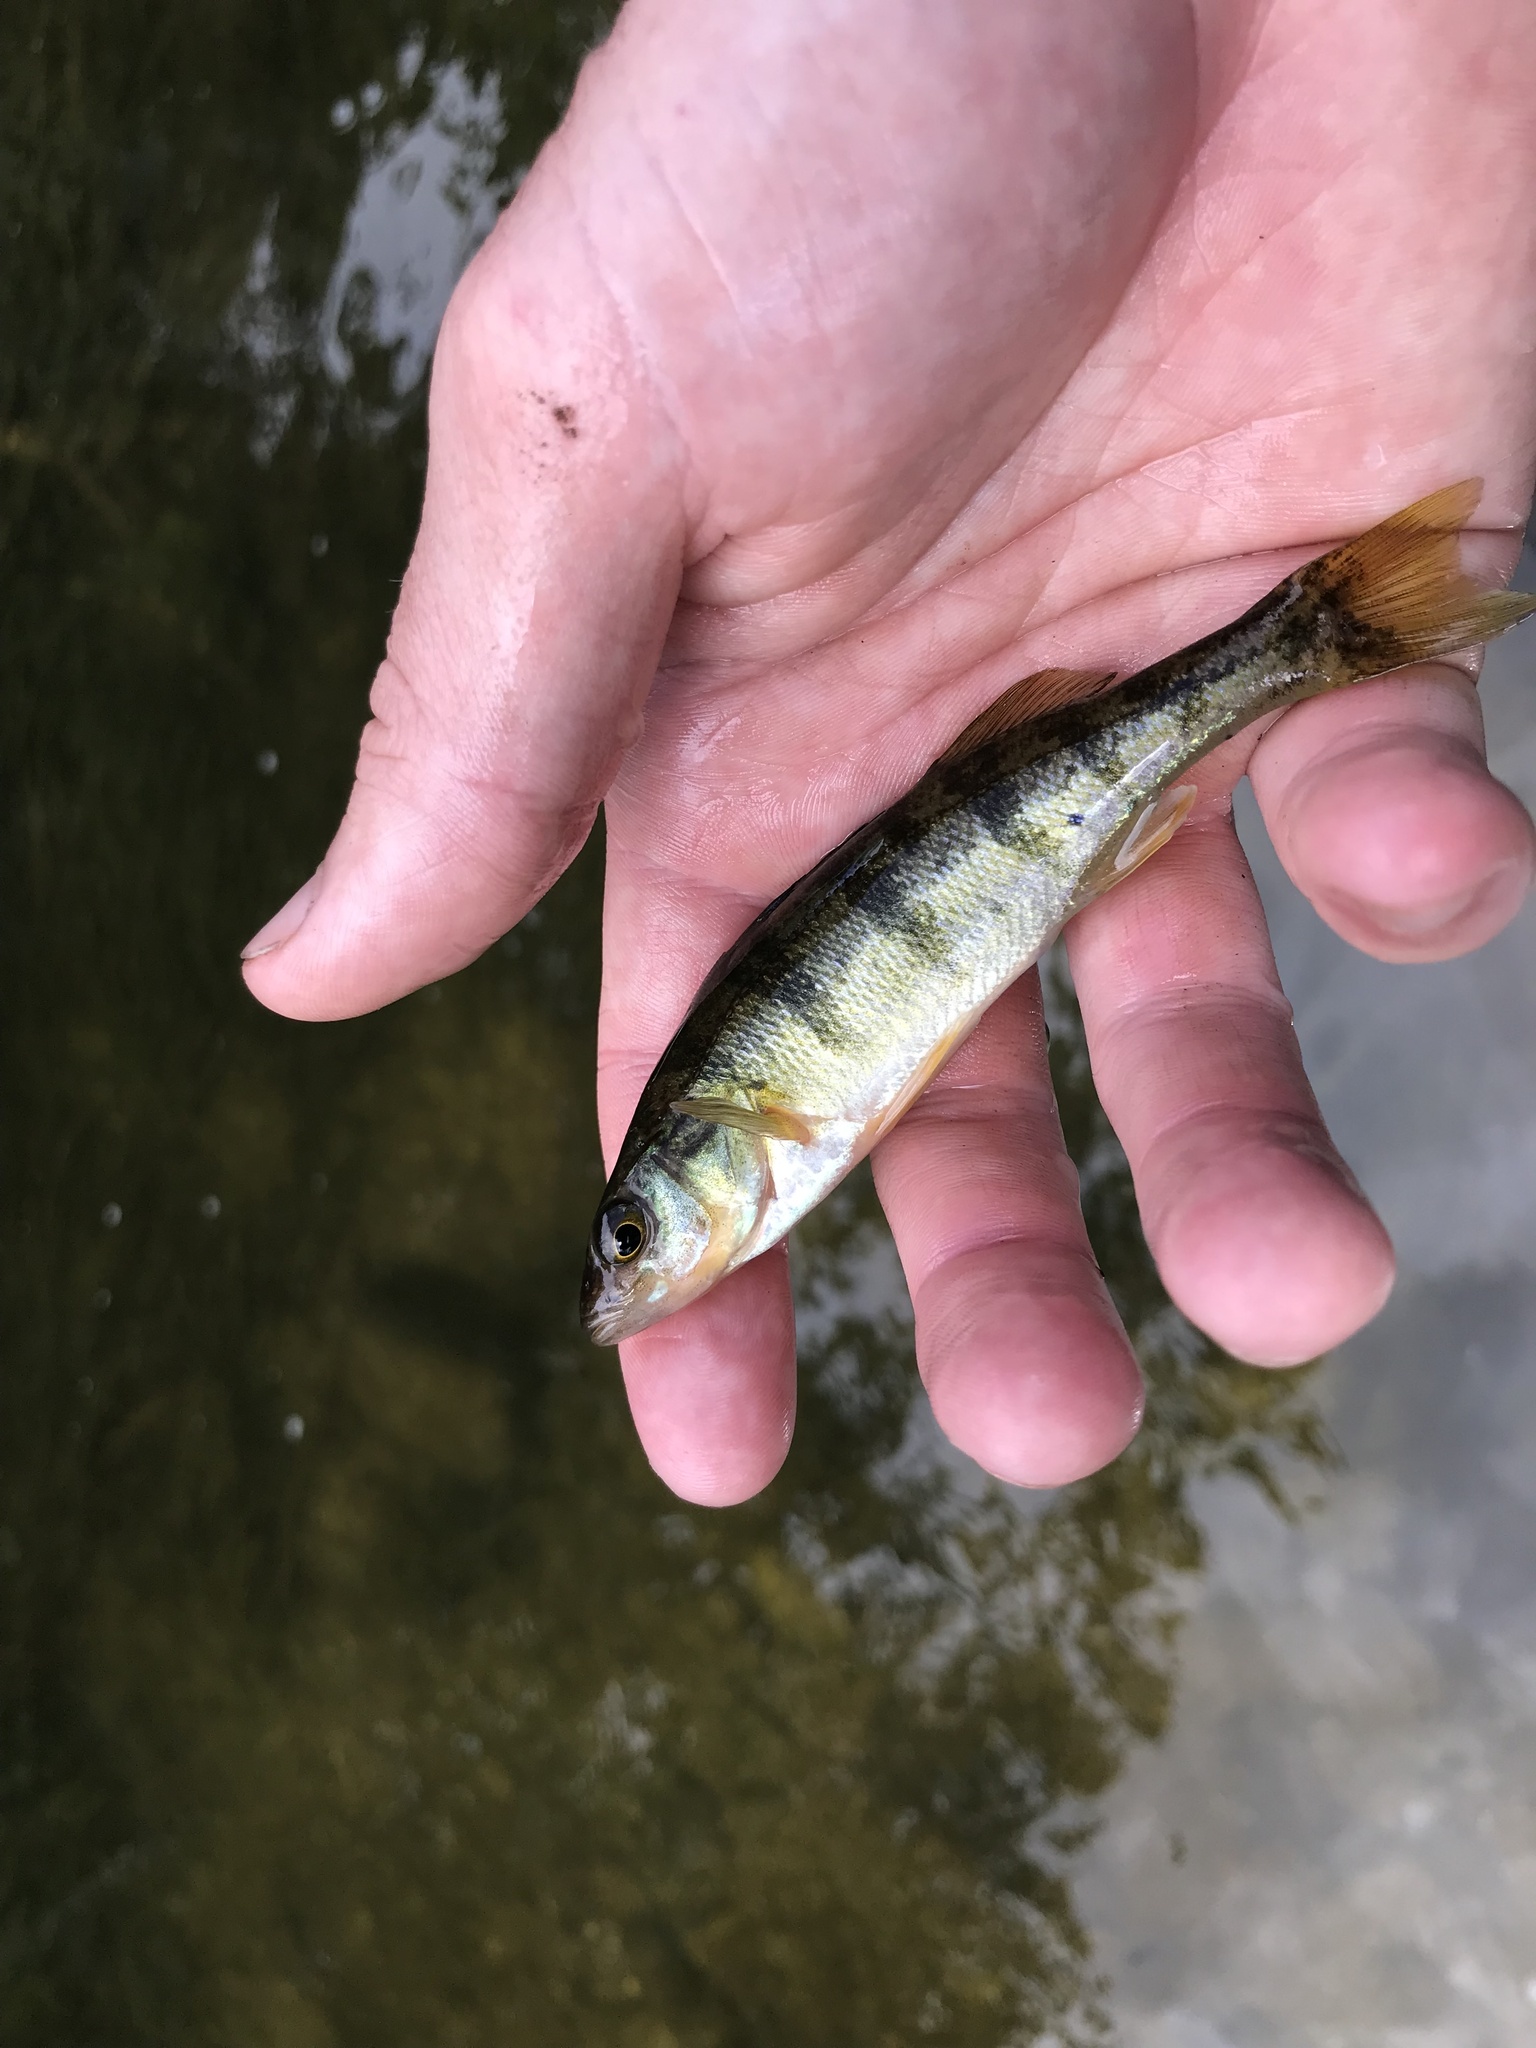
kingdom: Animalia
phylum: Chordata
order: Perciformes
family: Percidae
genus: Perca
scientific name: Perca flavescens
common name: Yellow perch
